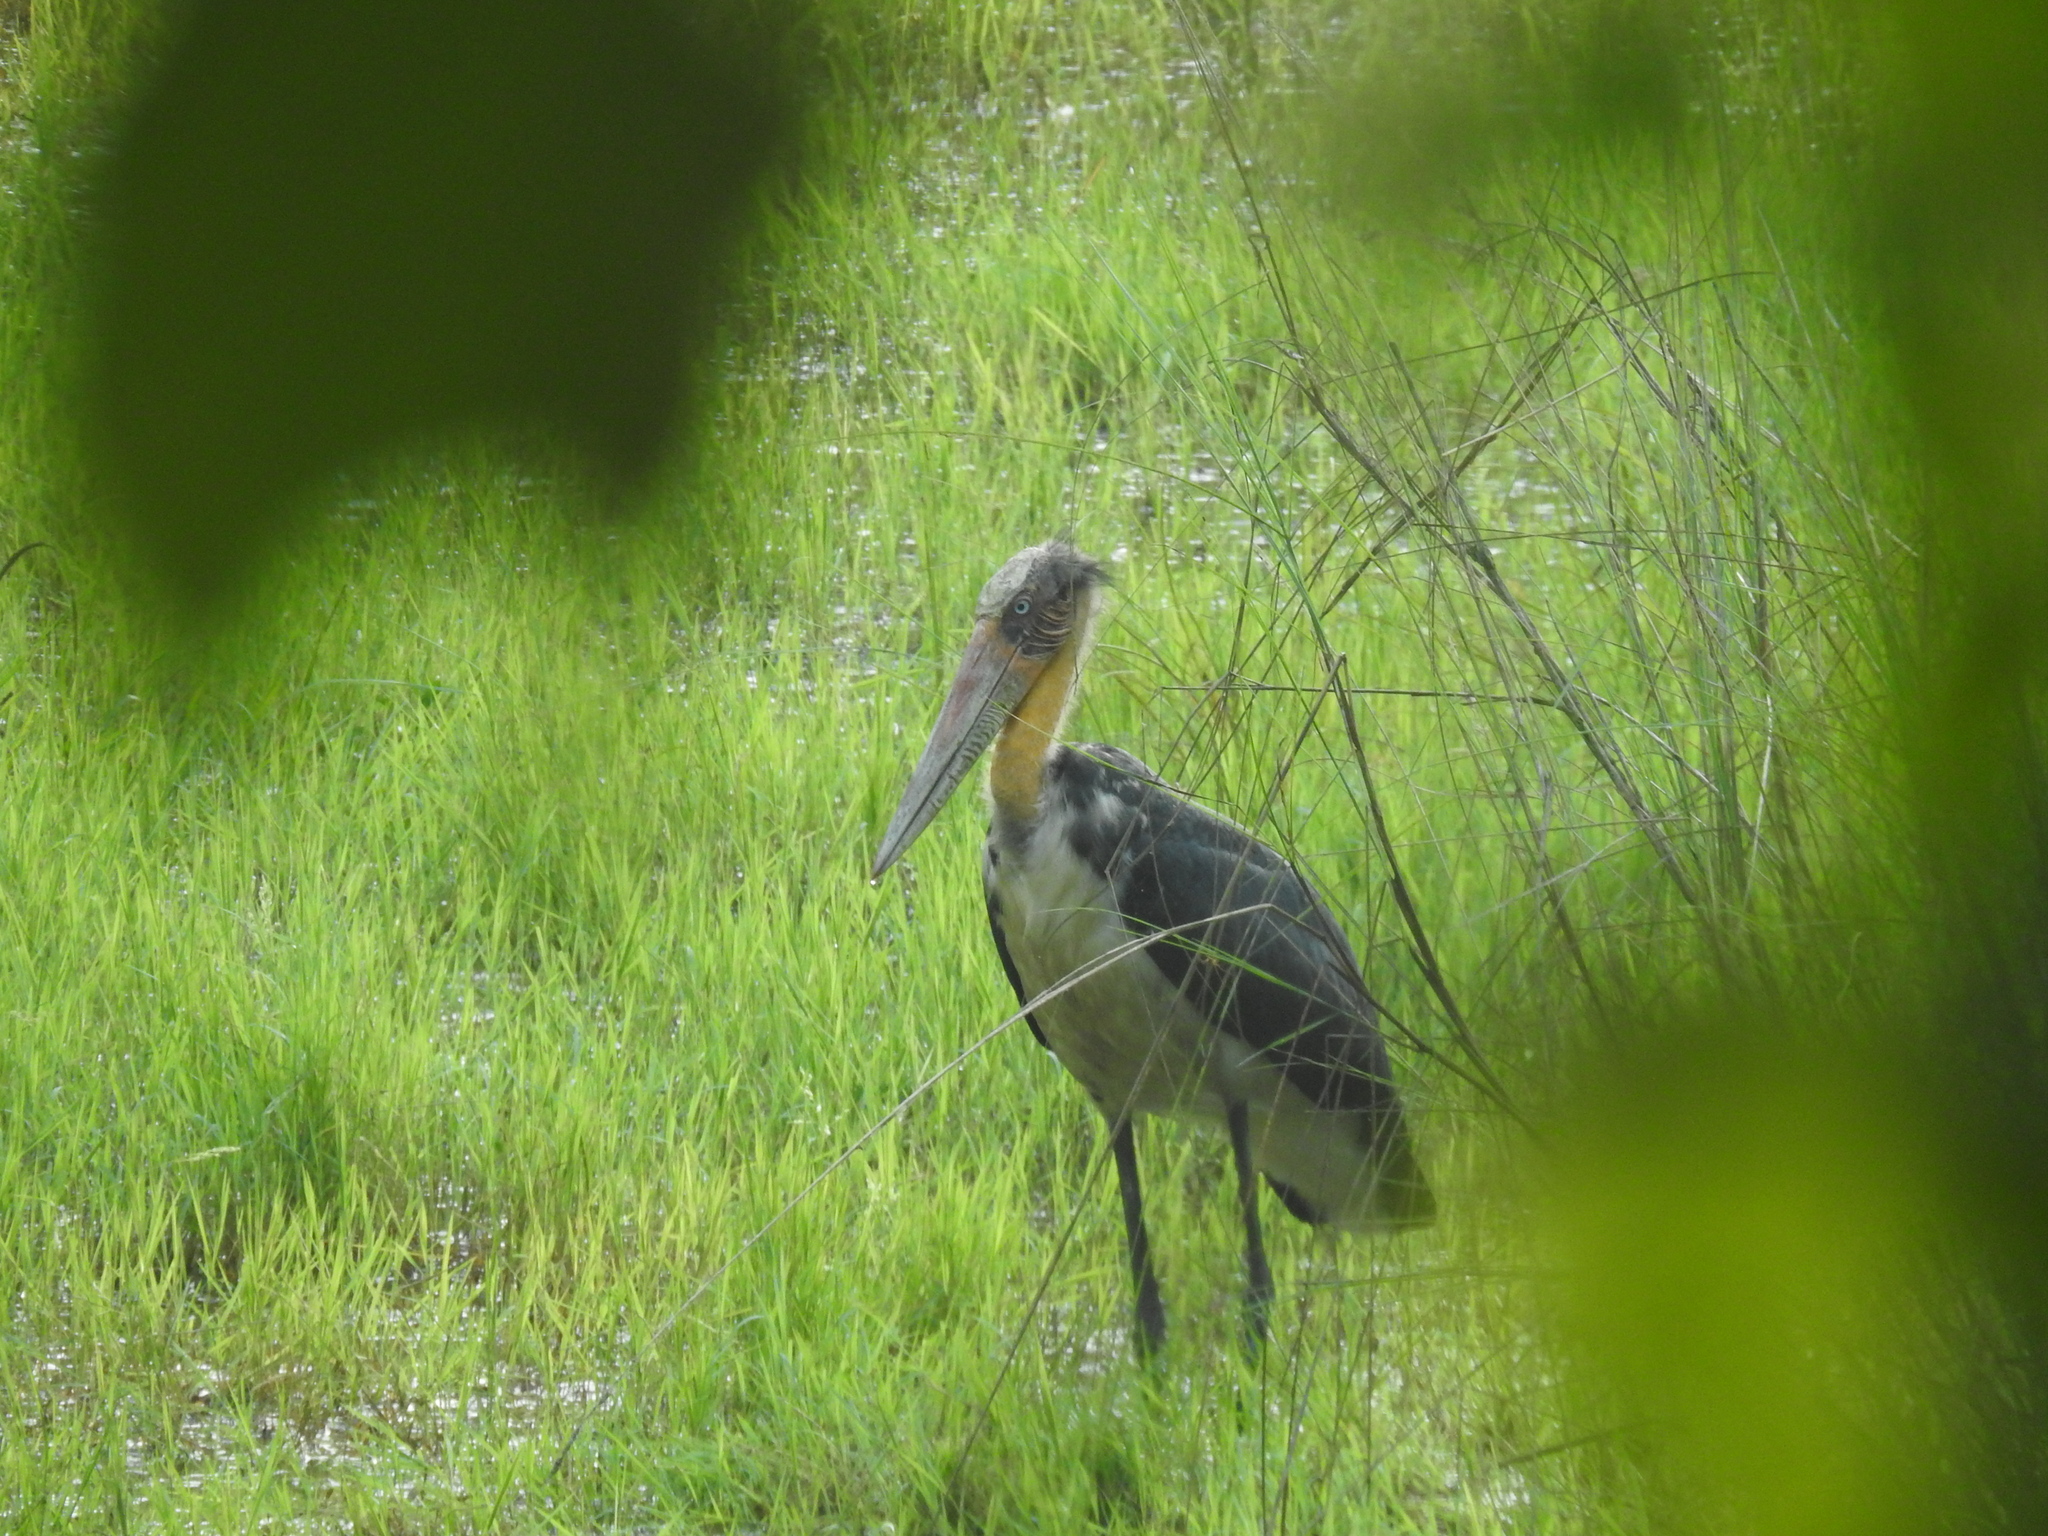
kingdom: Animalia
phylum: Chordata
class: Aves
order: Ciconiiformes
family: Ciconiidae
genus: Leptoptilos
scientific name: Leptoptilos javanicus
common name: Lesser adjutant
